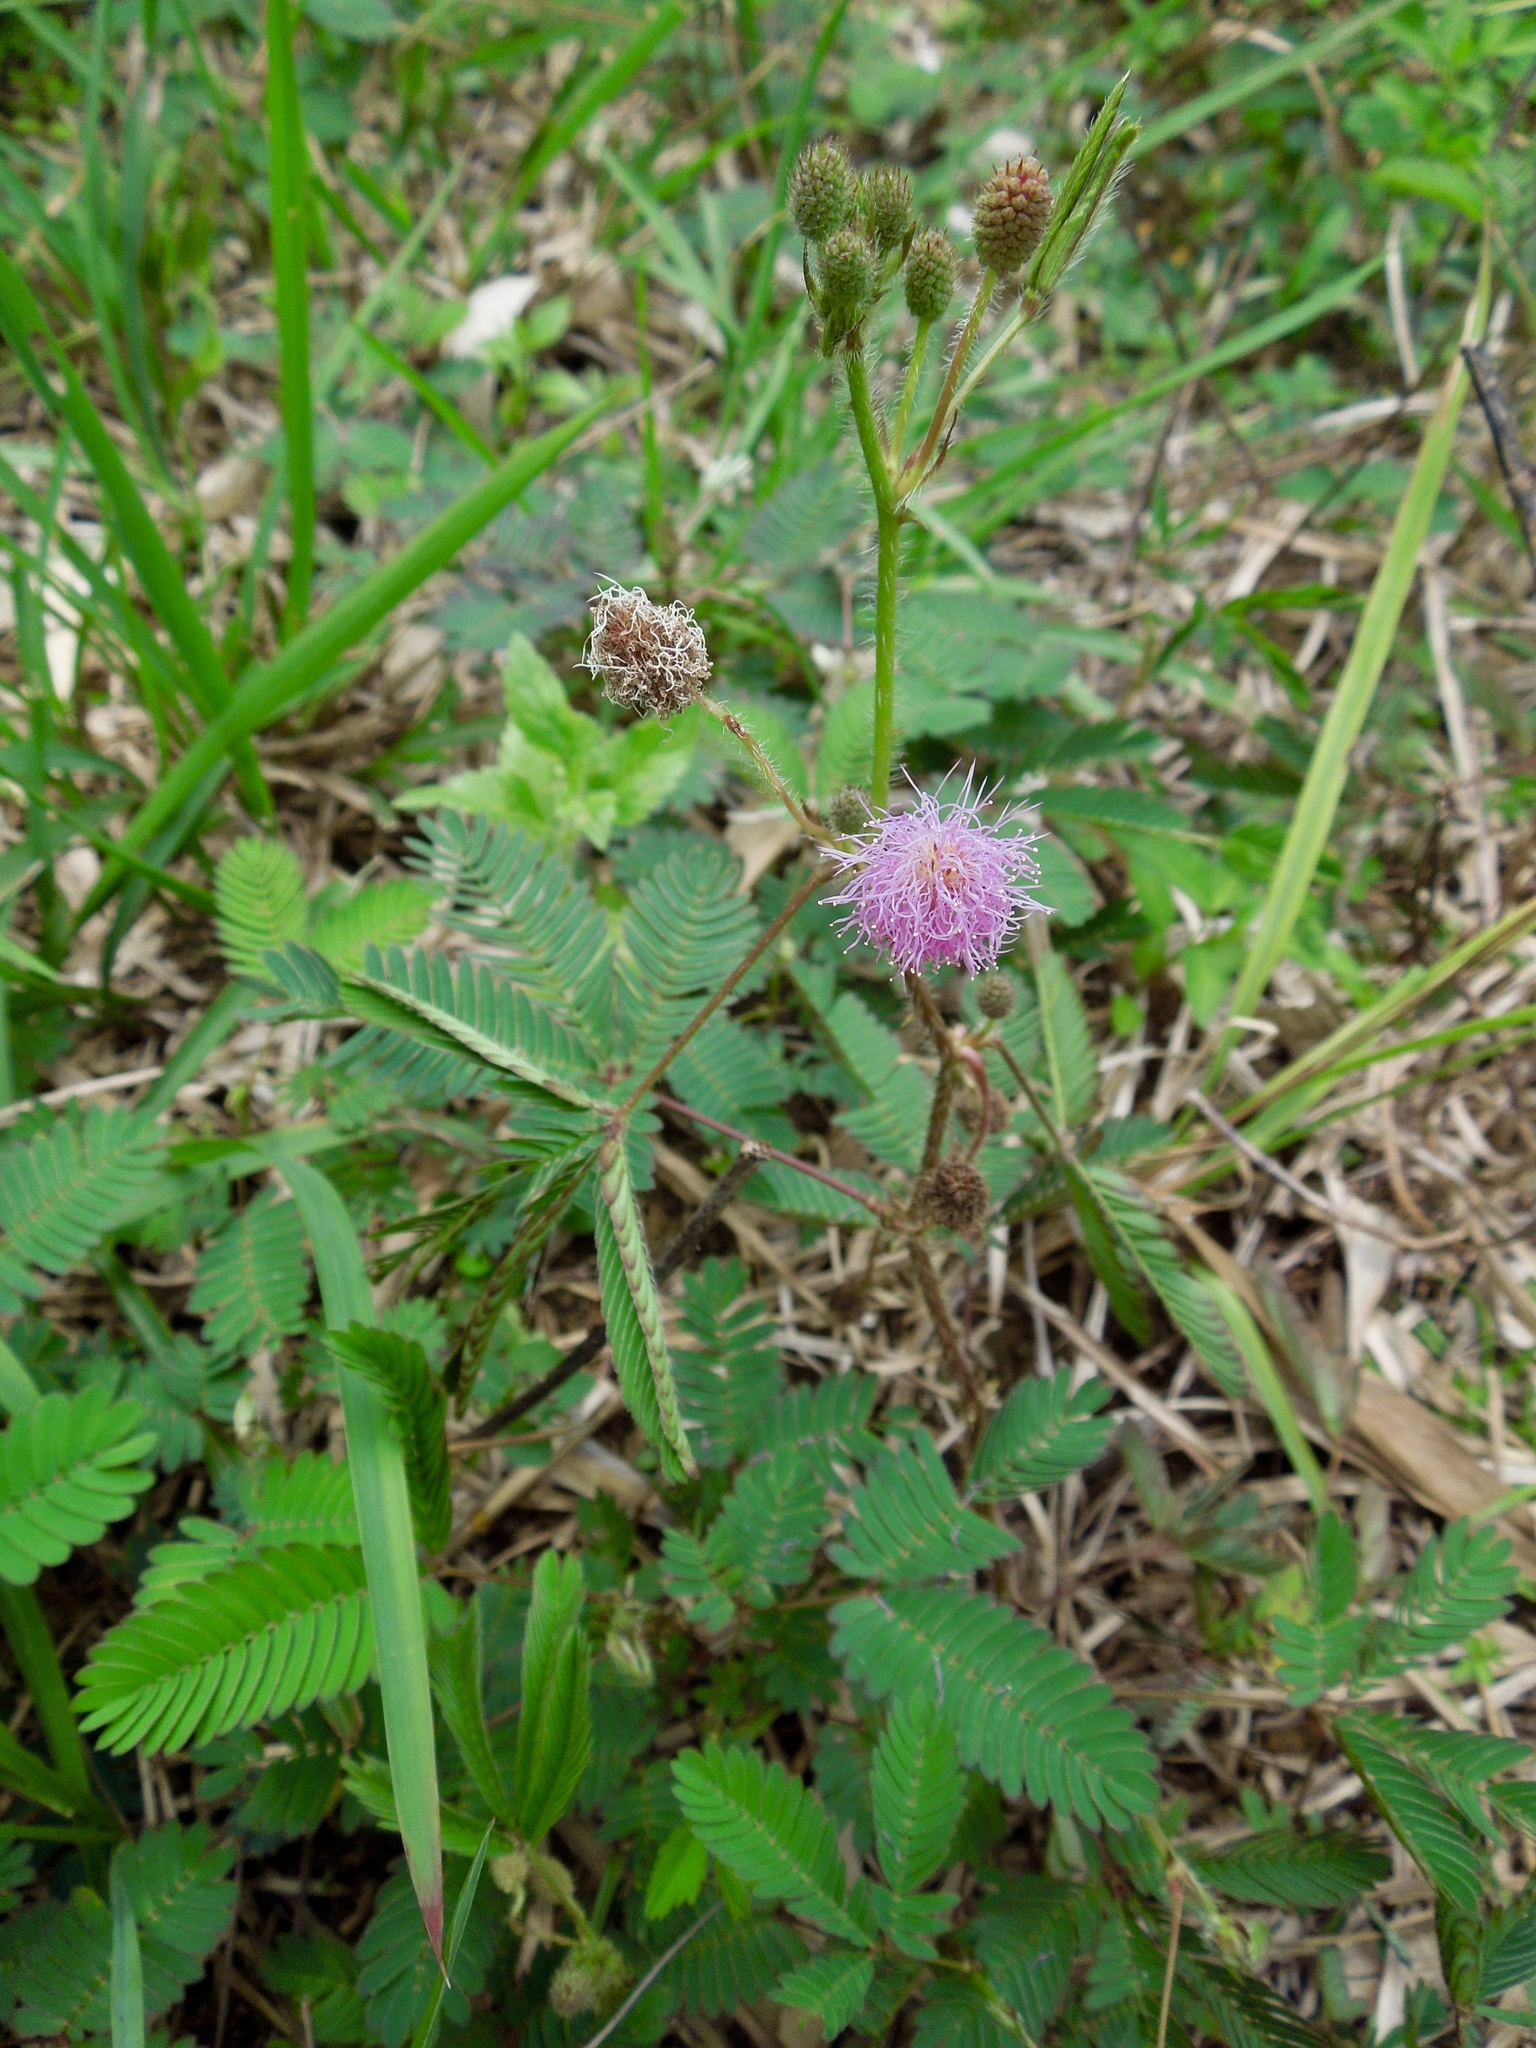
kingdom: Plantae
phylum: Tracheophyta
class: Magnoliopsida
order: Fabales
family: Fabaceae
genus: Mimosa
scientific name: Mimosa pudica
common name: Sensitive plant
